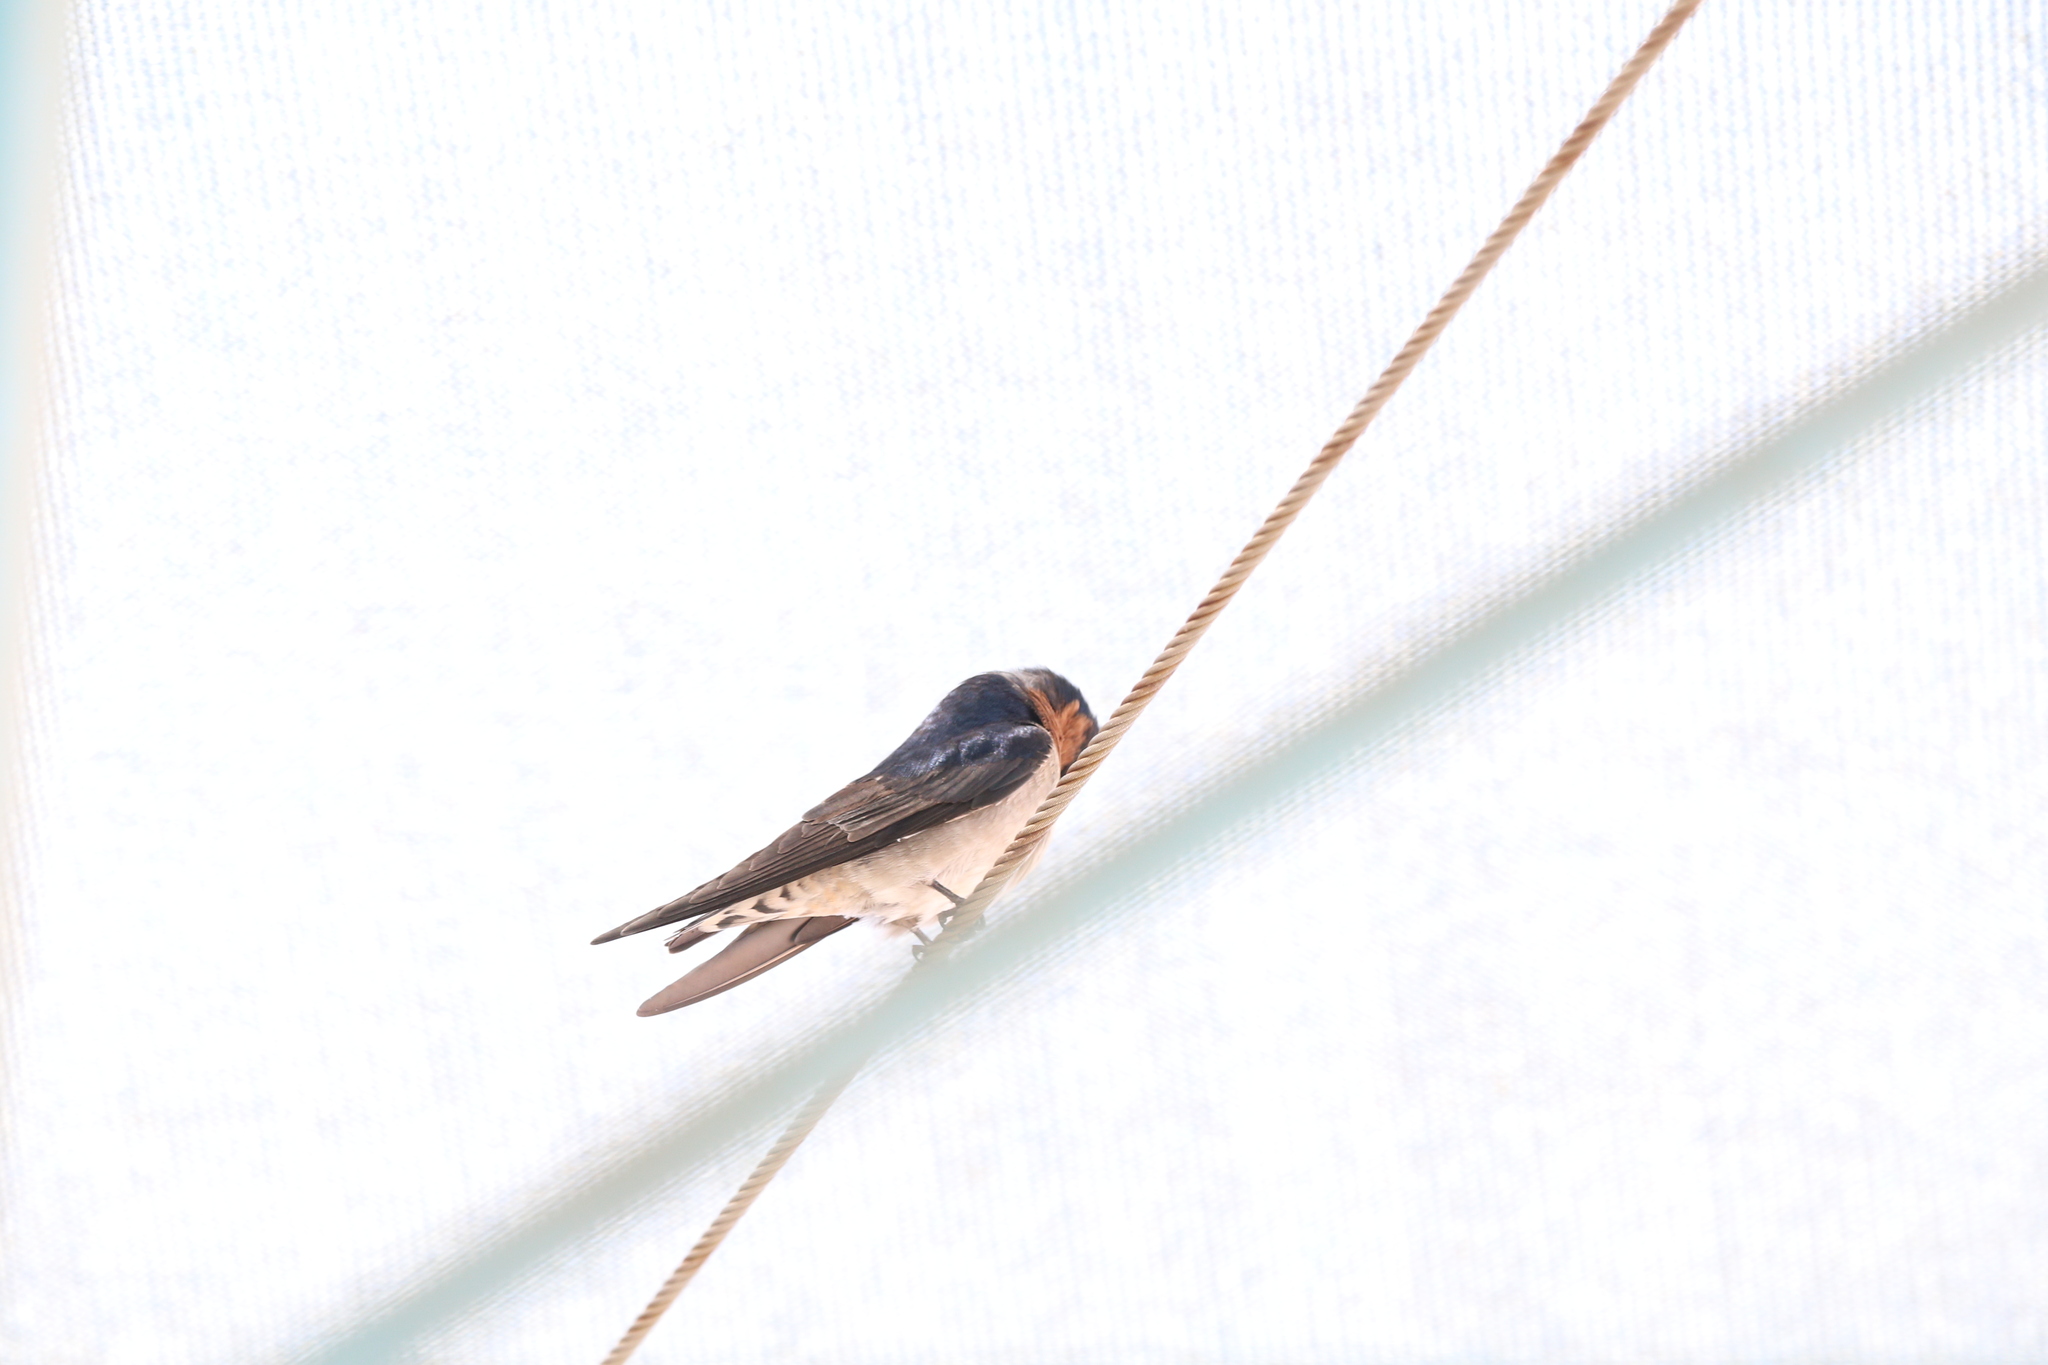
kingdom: Animalia
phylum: Chordata
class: Aves
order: Passeriformes
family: Hirundinidae
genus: Hirundo
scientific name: Hirundo neoxena
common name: Welcome swallow
